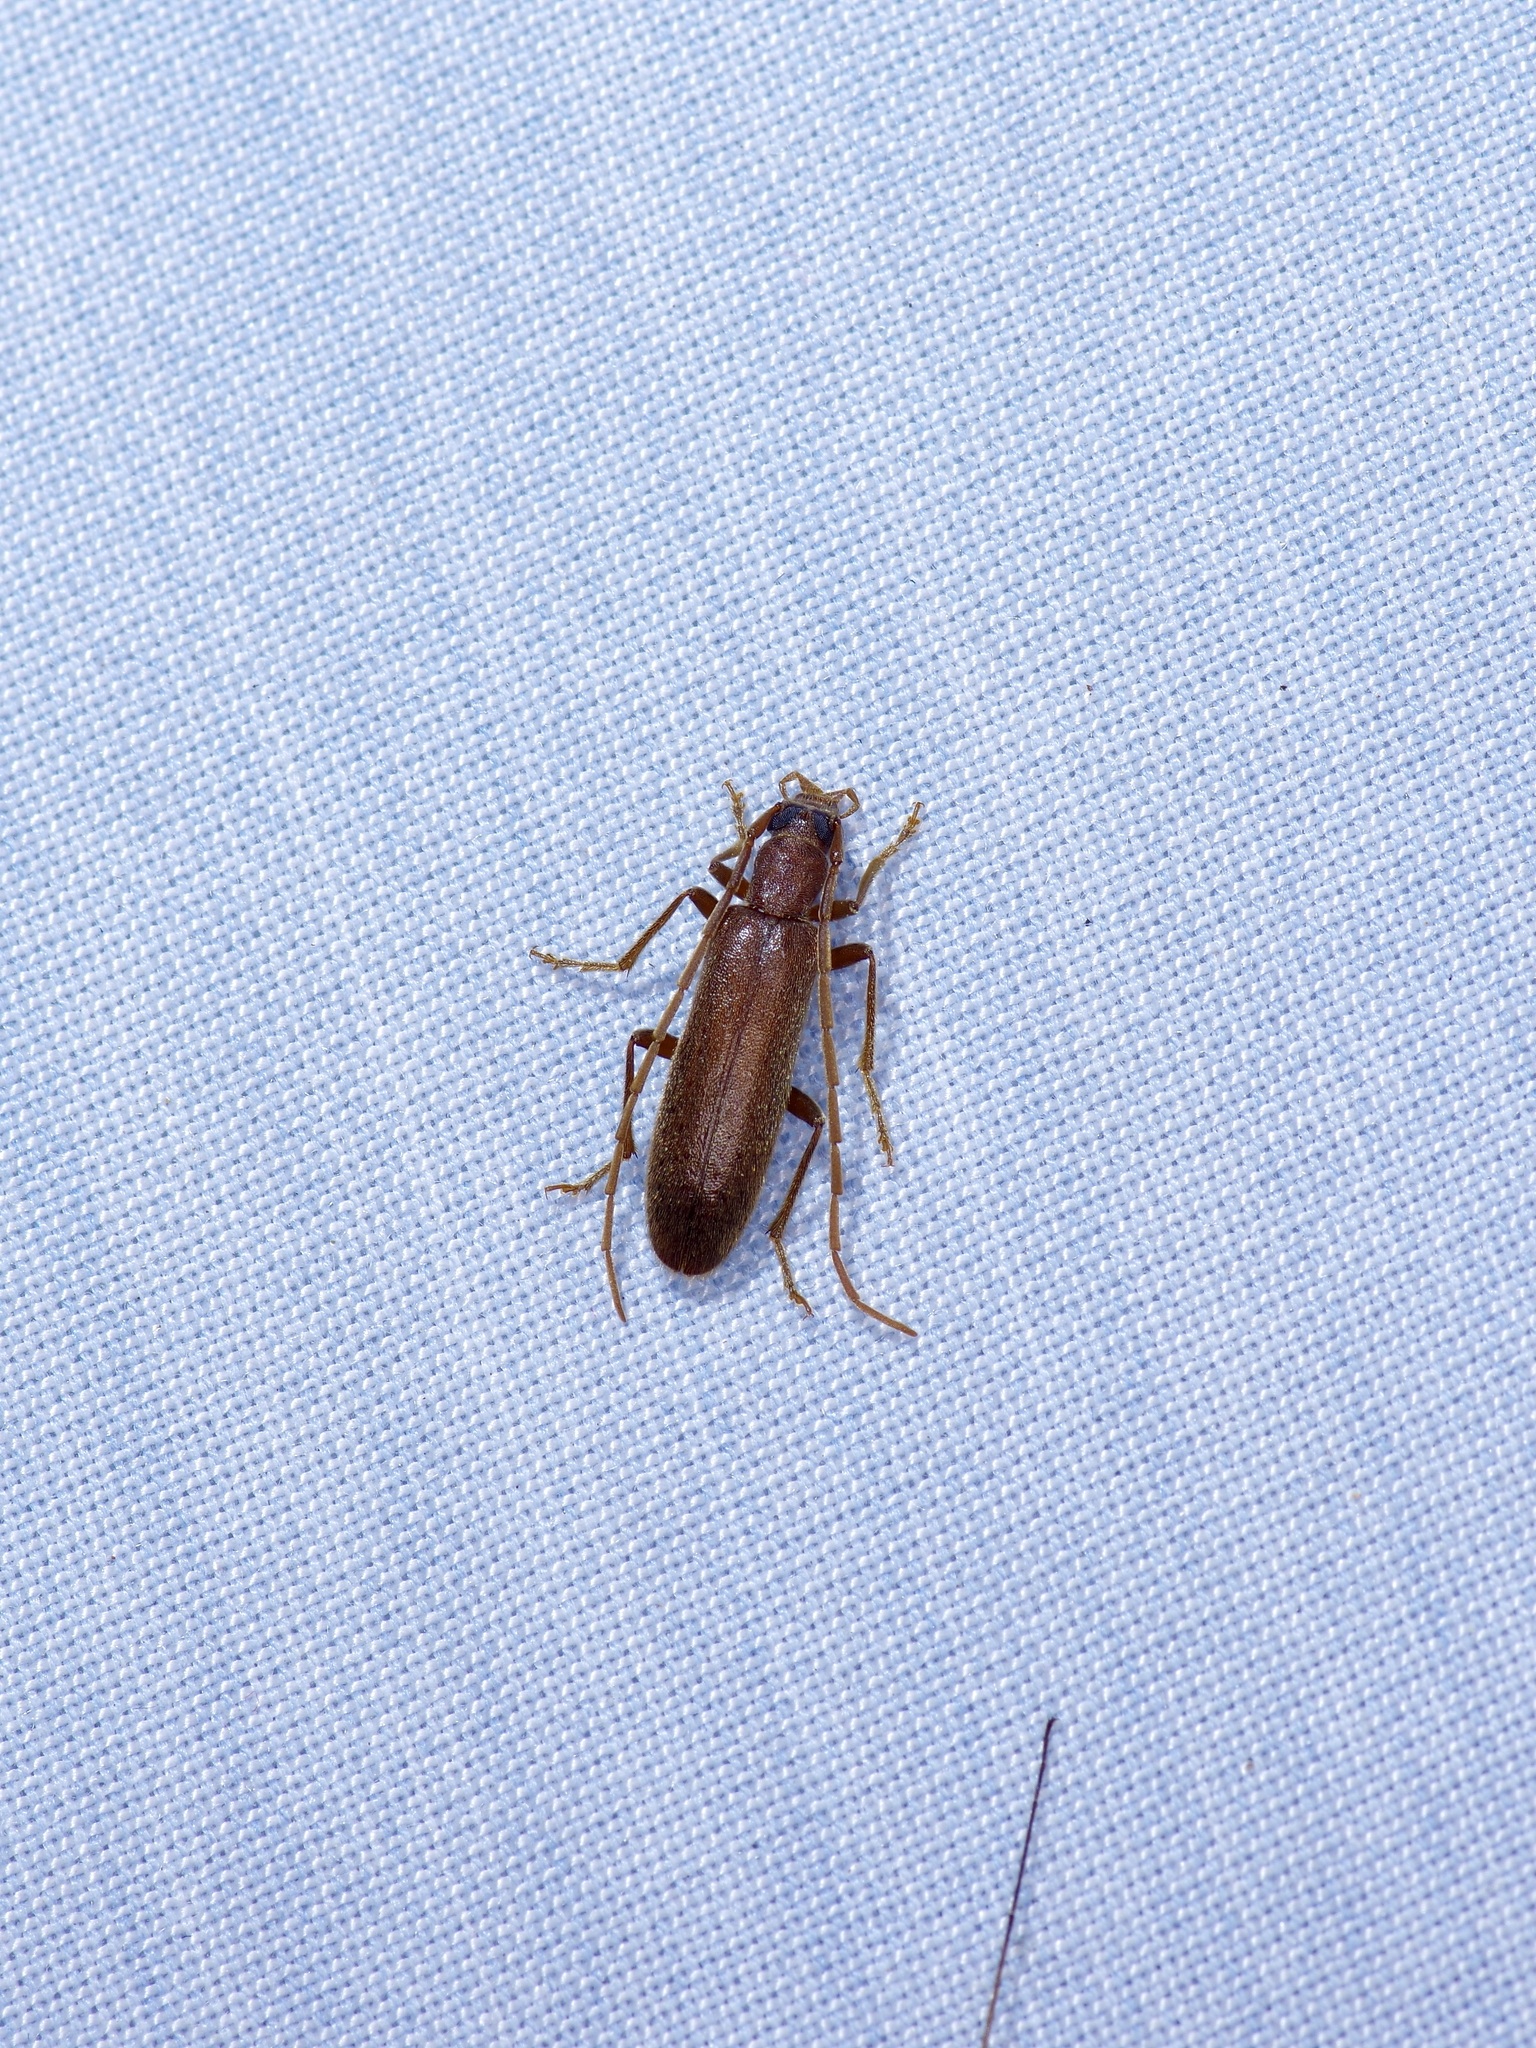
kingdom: Animalia
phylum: Arthropoda
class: Insecta
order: Coleoptera
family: Oedemeridae
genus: Sparedrus
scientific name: Sparedrus aspersus
